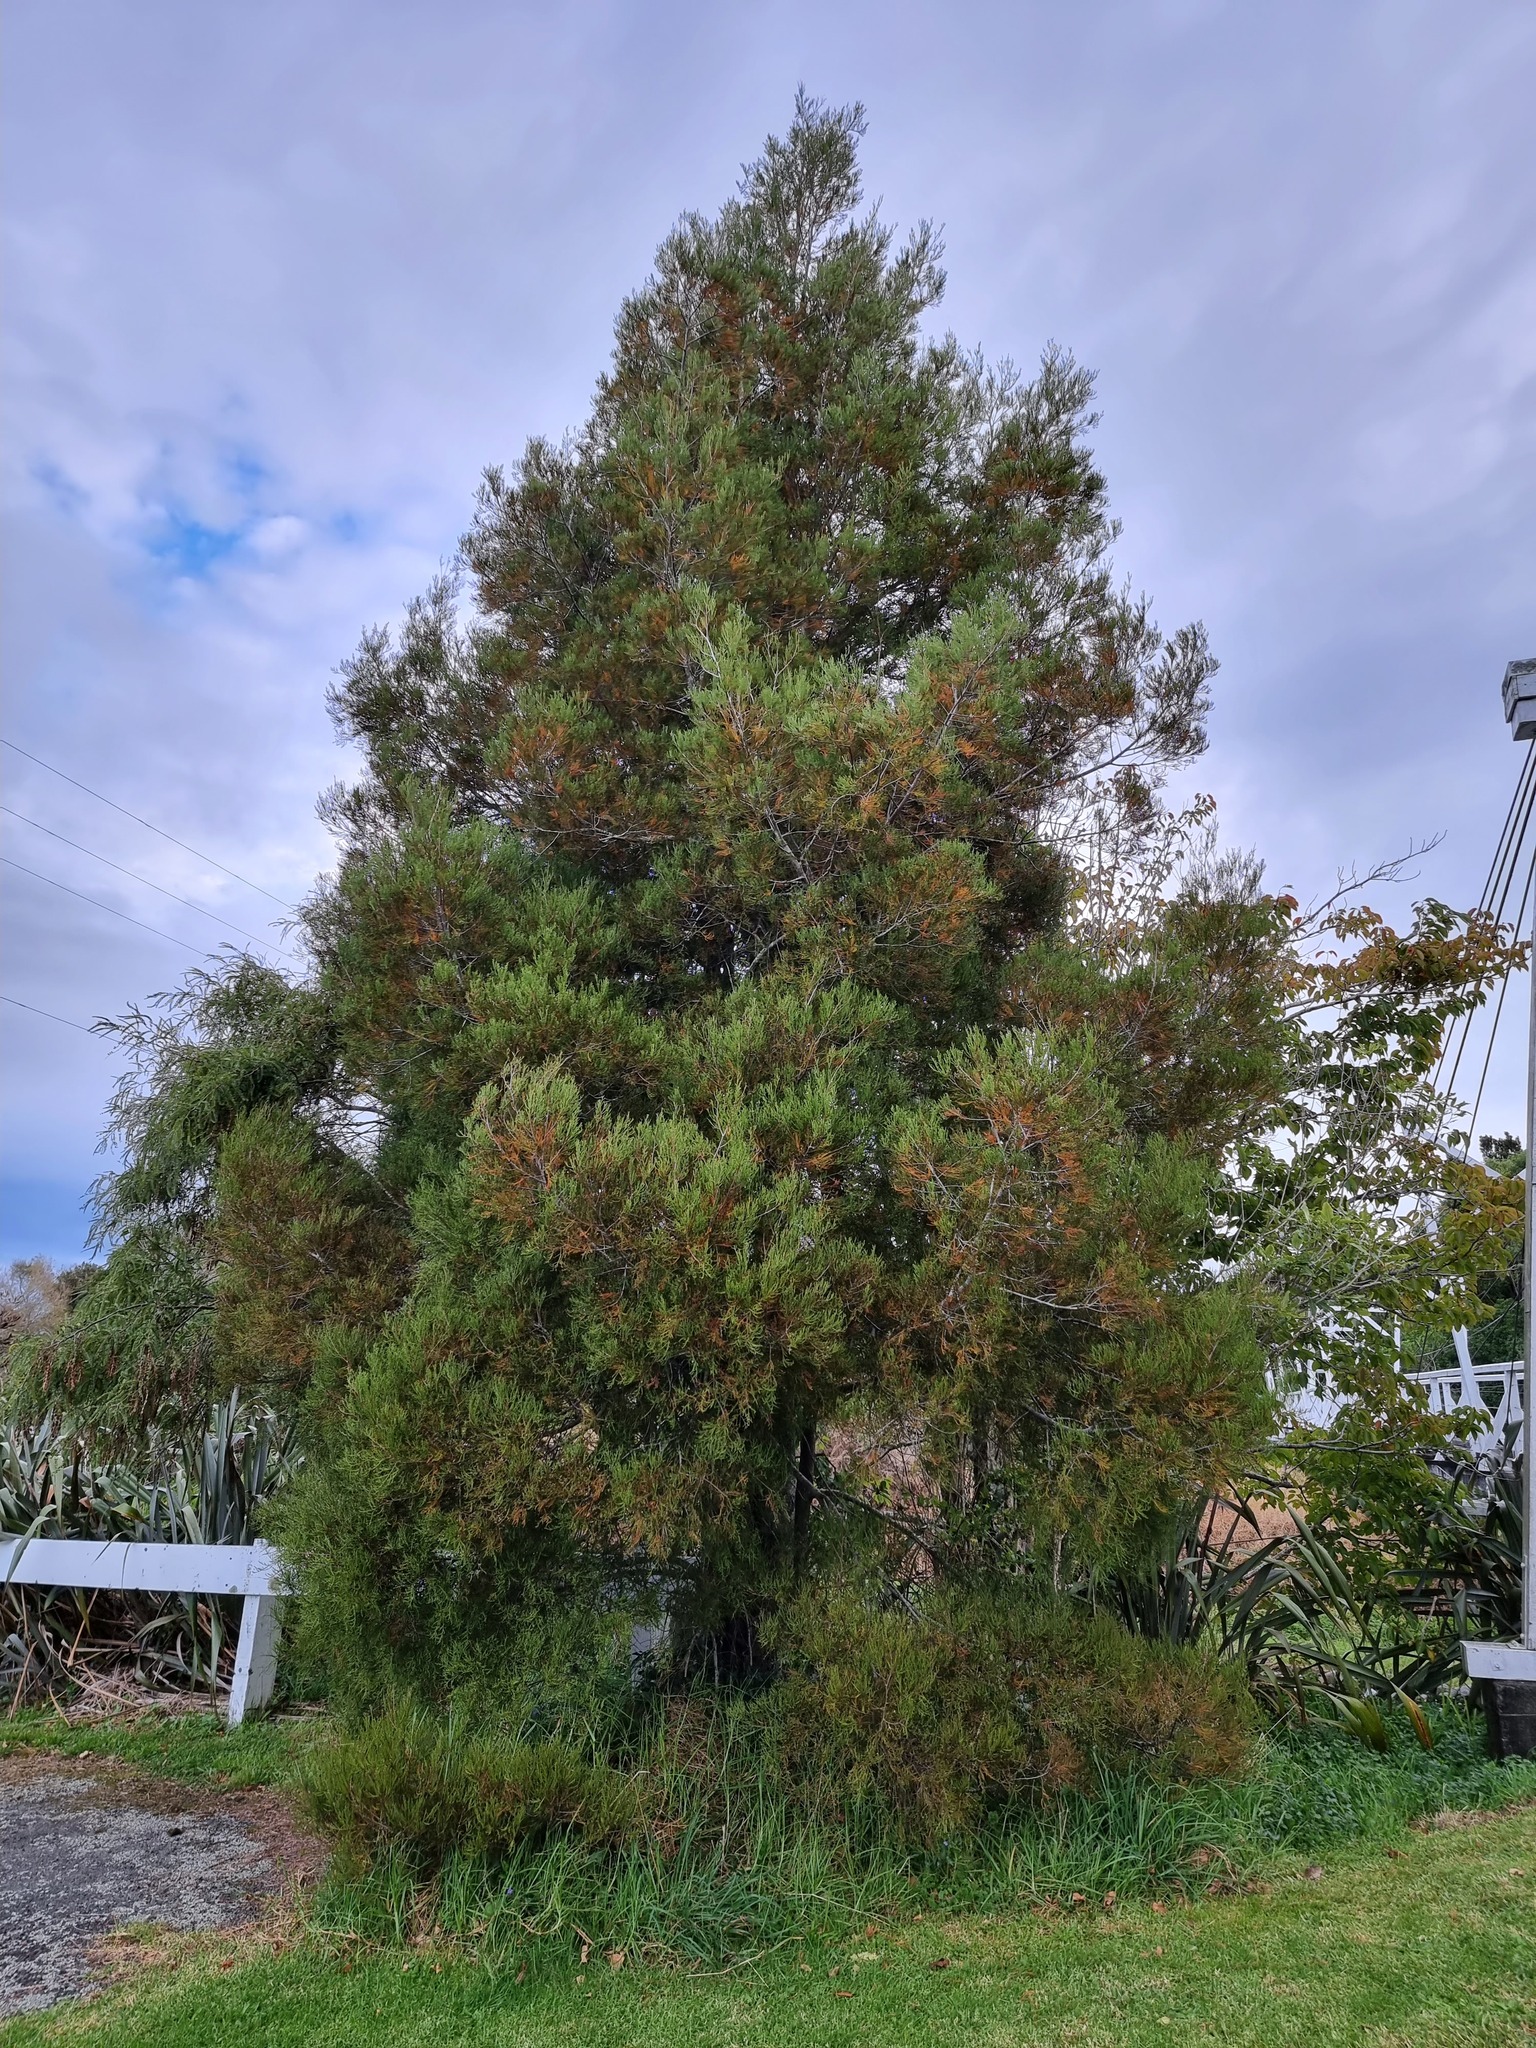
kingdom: Plantae
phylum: Tracheophyta
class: Pinopsida
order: Pinales
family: Podocarpaceae
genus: Dacrycarpus
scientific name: Dacrycarpus dacrydioides
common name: White pine
